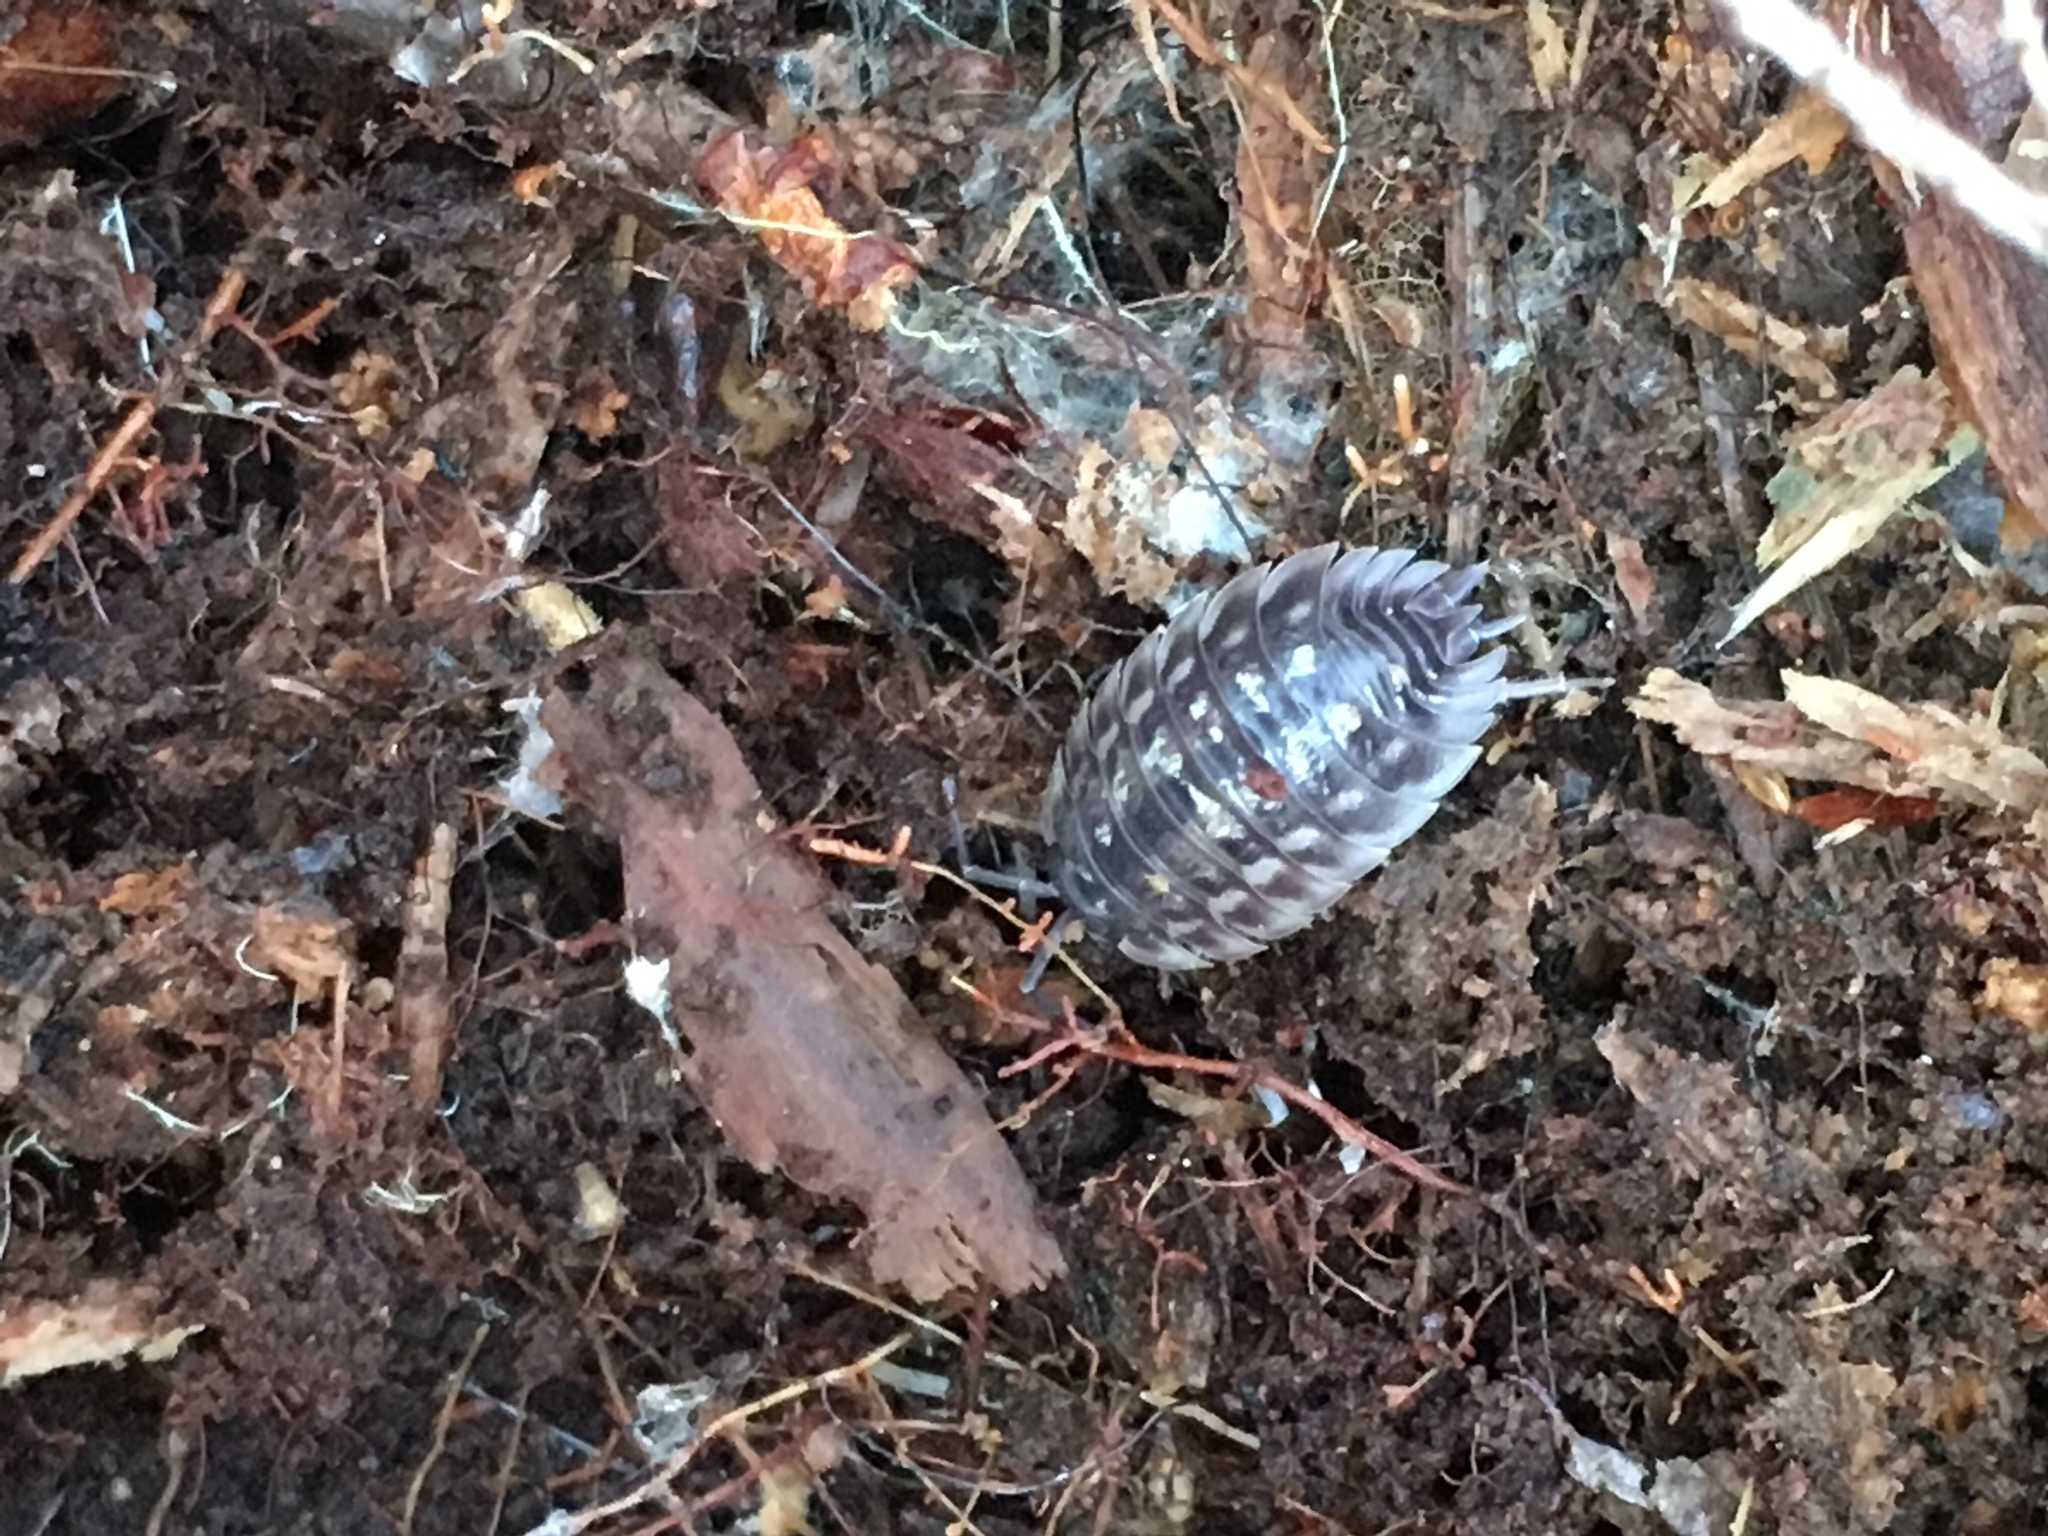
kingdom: Animalia
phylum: Arthropoda
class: Malacostraca
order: Isopoda
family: Oniscidae
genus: Oniscus
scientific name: Oniscus asellus
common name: Common shiny woodlouse
